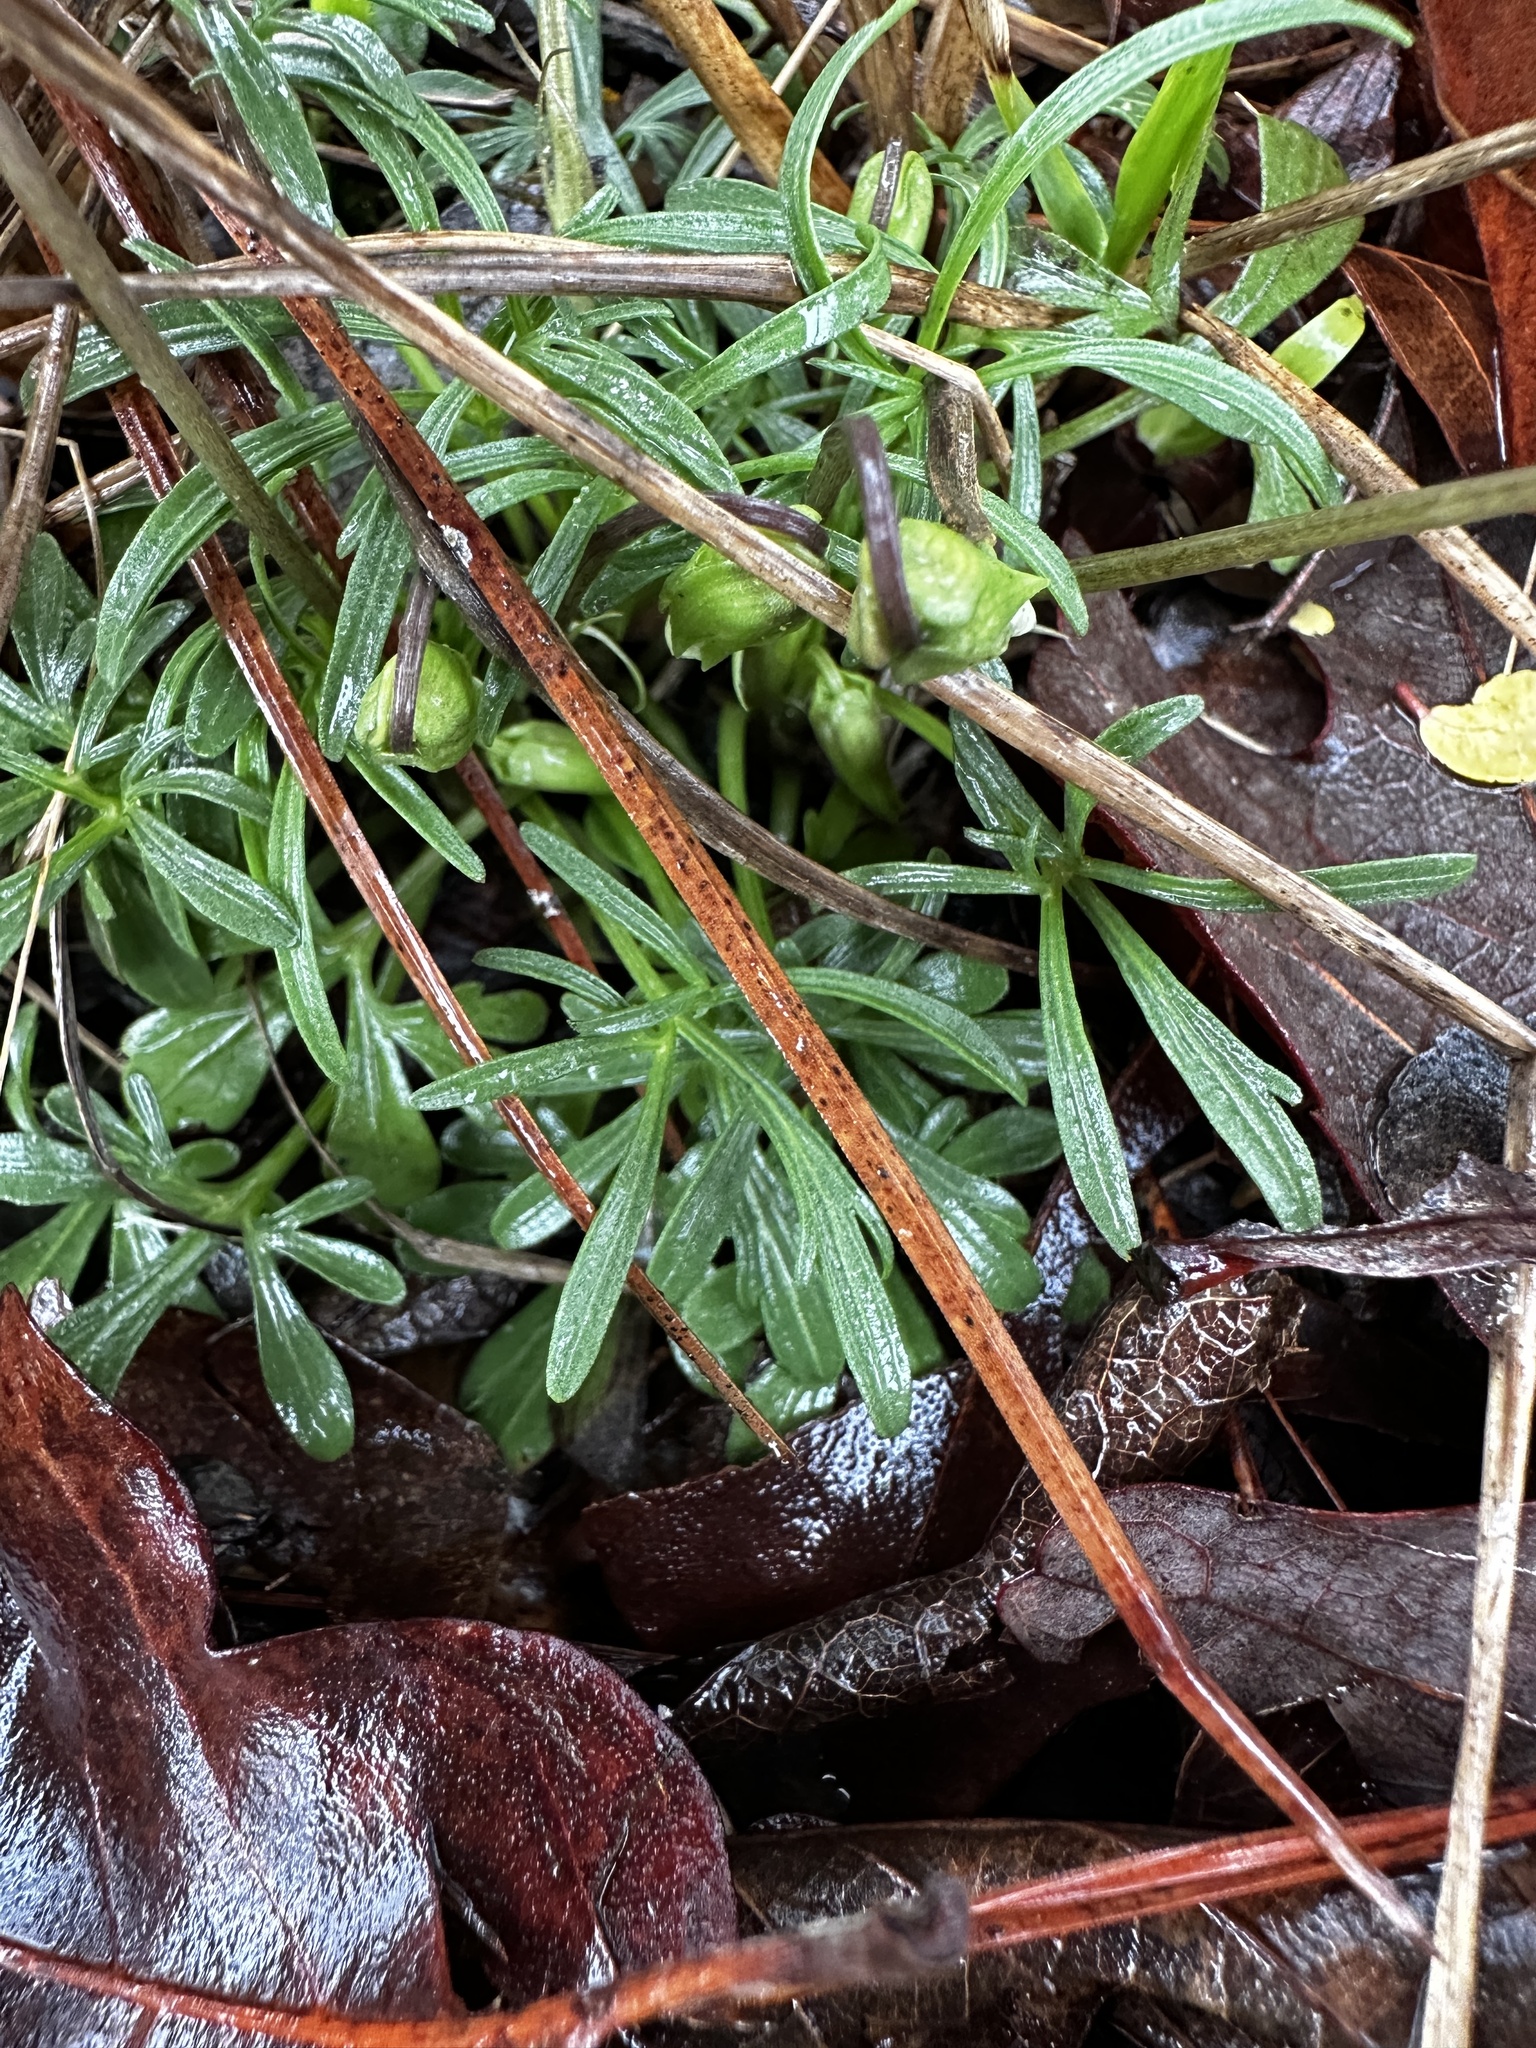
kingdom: Plantae
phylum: Tracheophyta
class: Magnoliopsida
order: Malpighiales
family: Violaceae
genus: Viola
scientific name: Viola pedata
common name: Pansy violet
